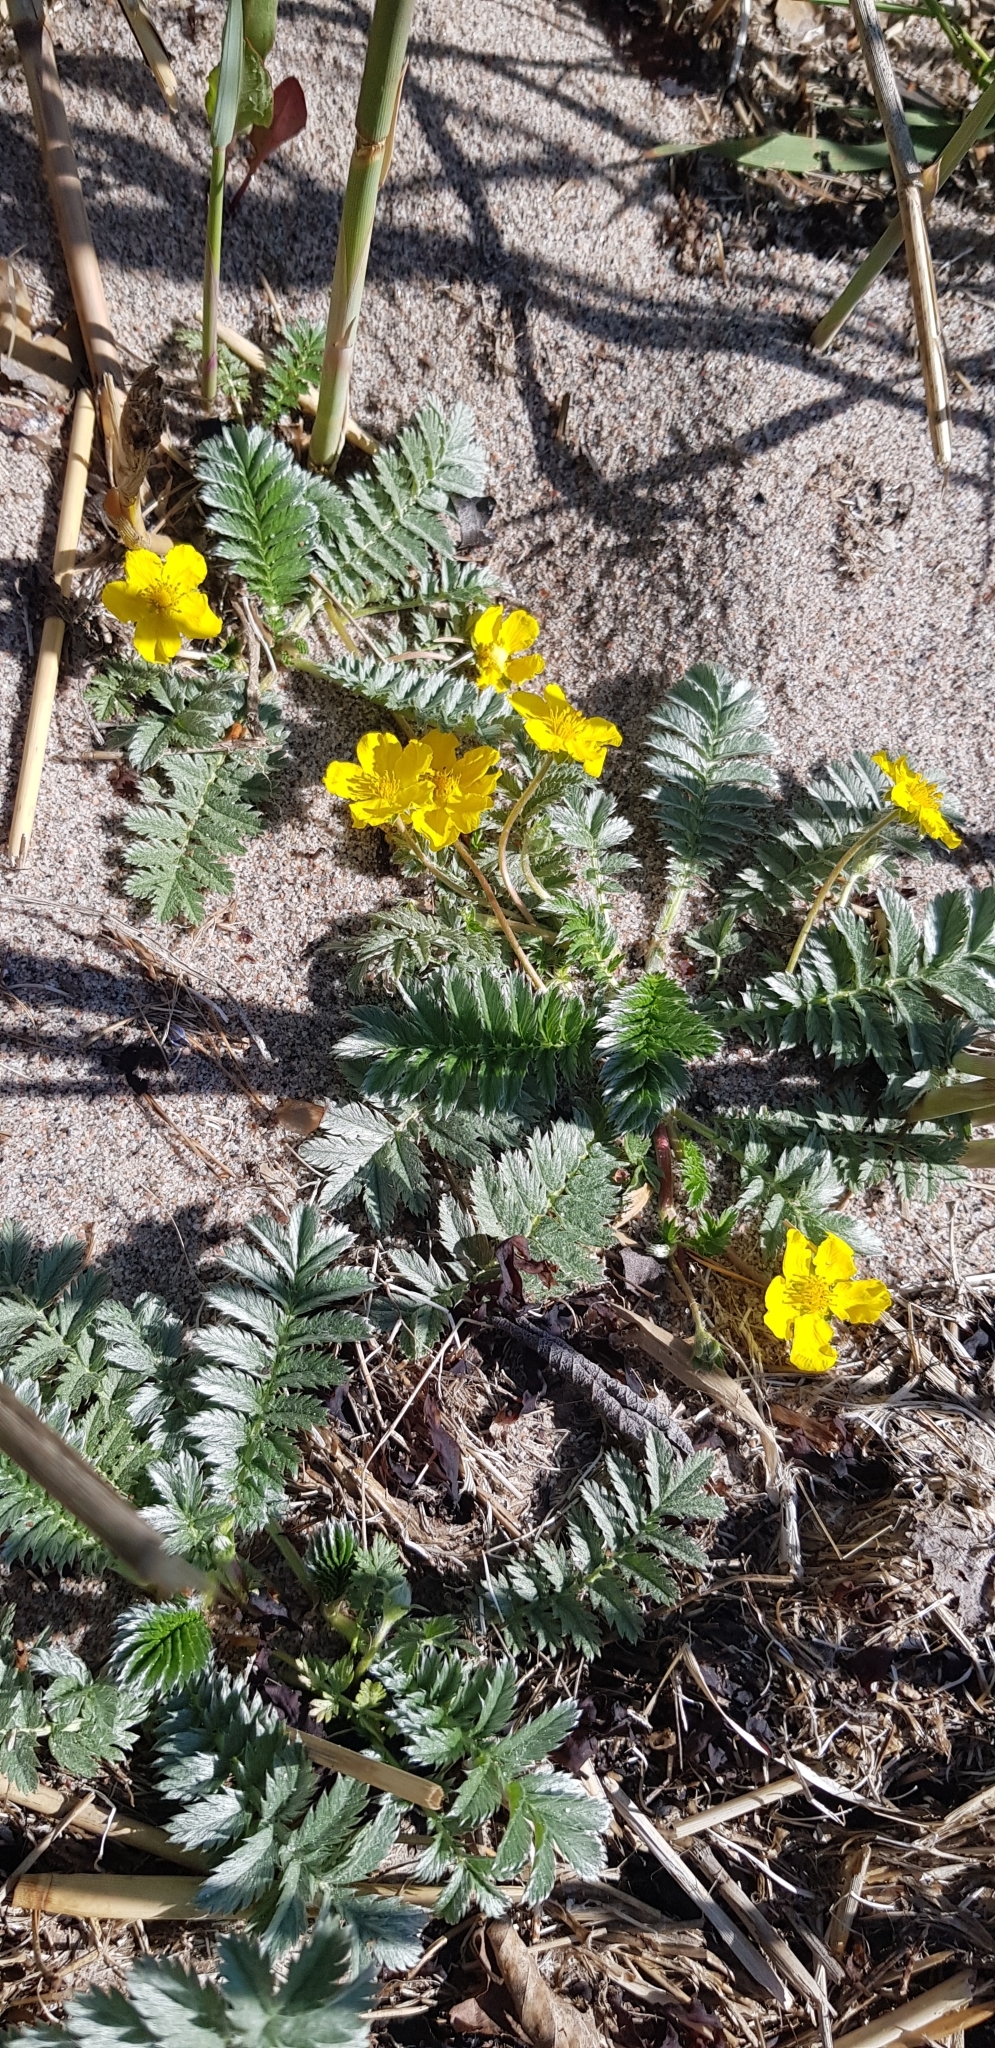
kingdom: Plantae
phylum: Tracheophyta
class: Magnoliopsida
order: Rosales
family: Rosaceae
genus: Argentina
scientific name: Argentina anserina
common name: Common silverweed
